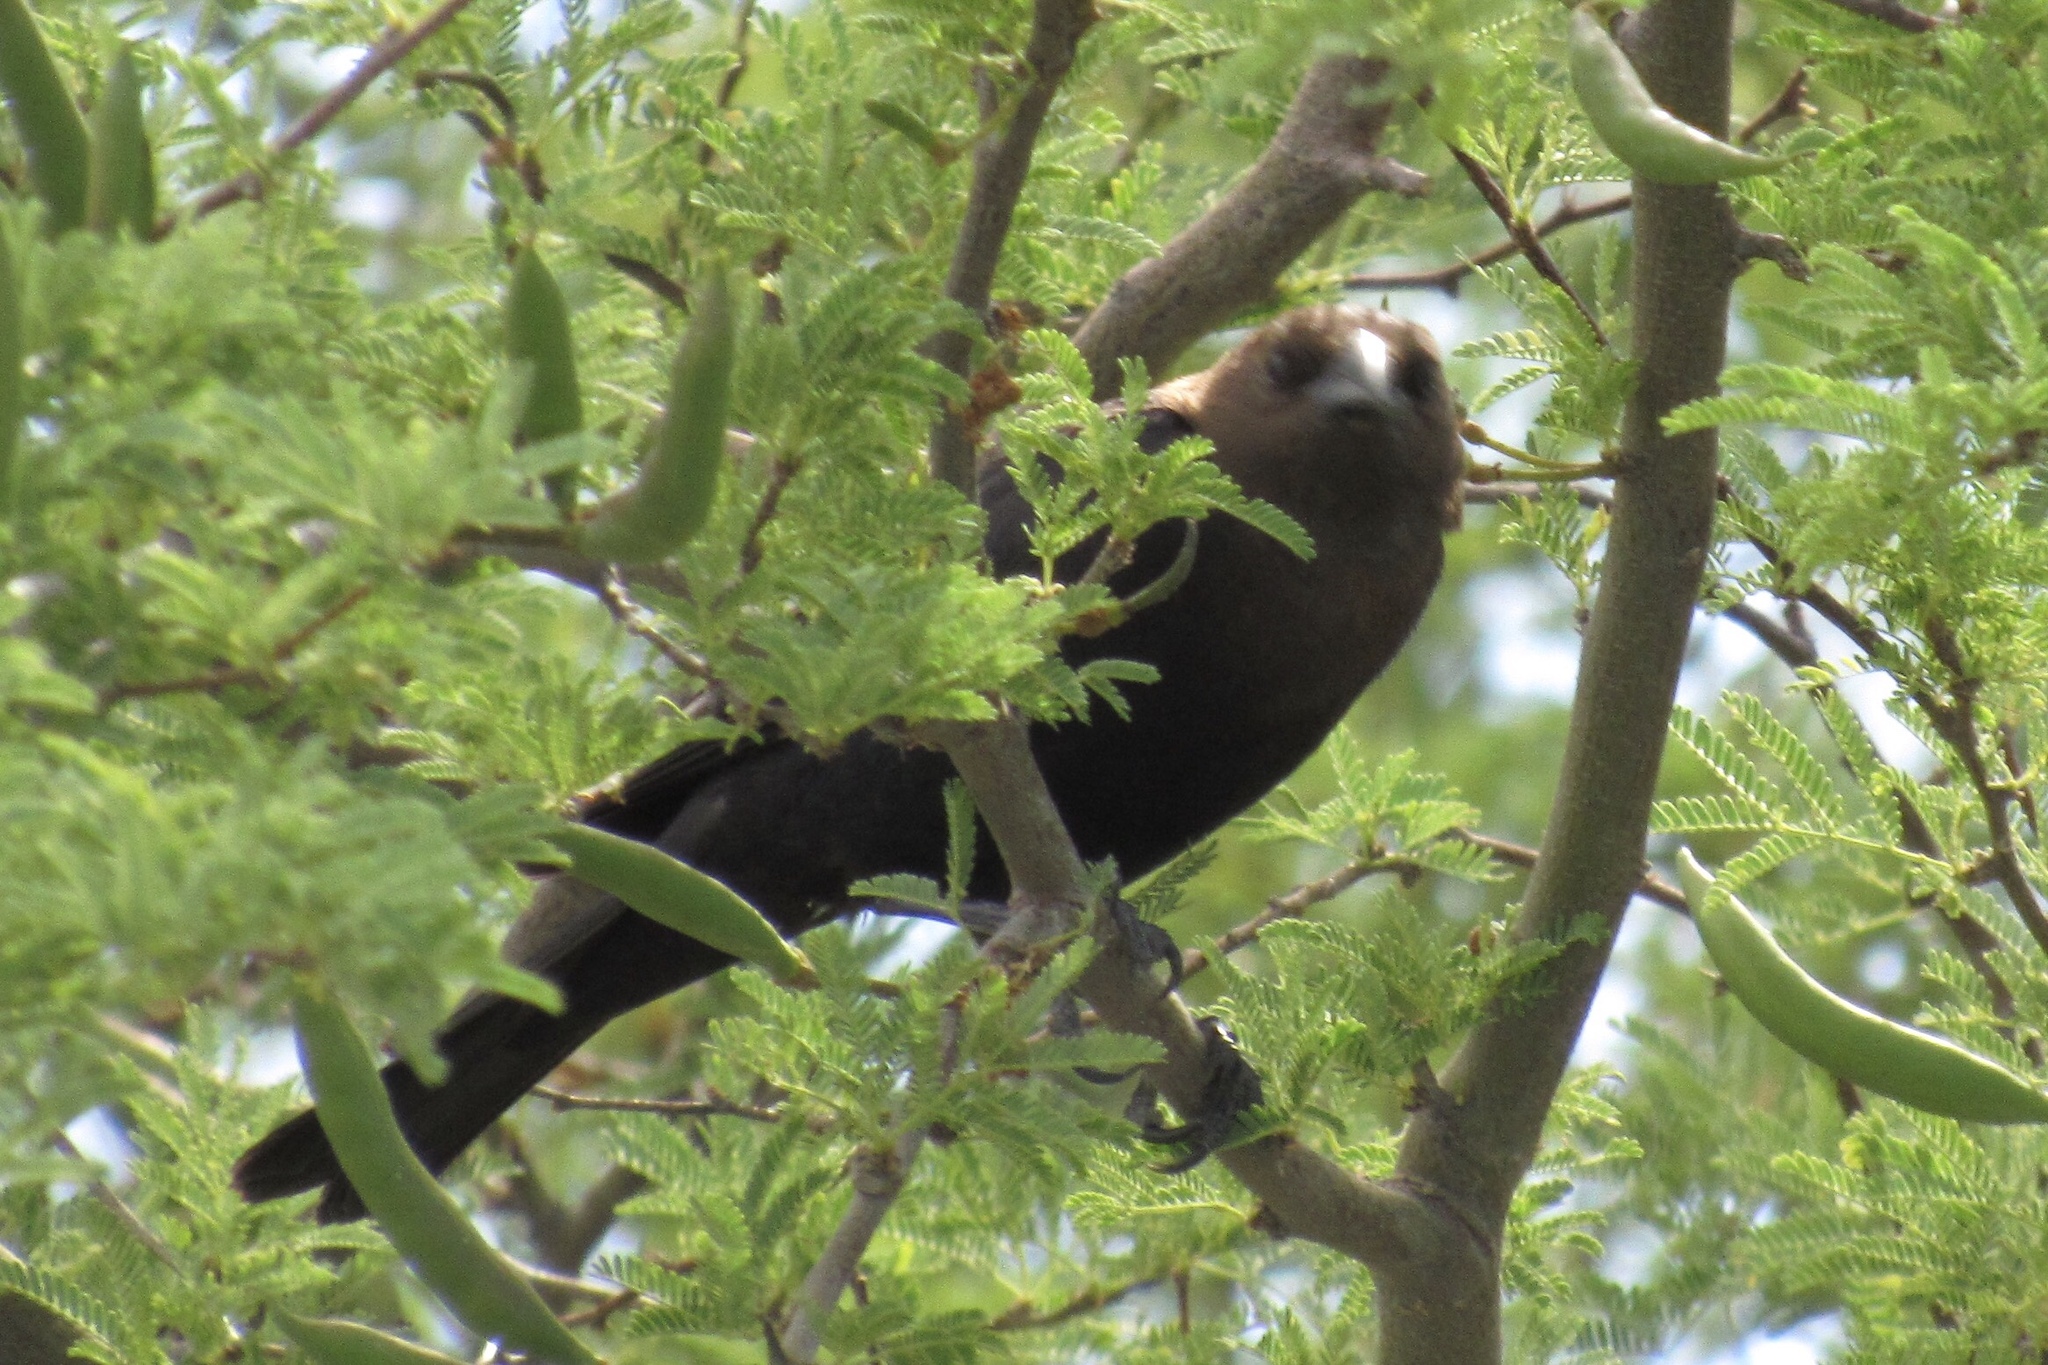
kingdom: Animalia
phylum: Chordata
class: Aves
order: Passeriformes
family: Icteridae
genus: Molothrus
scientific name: Molothrus ater
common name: Brown-headed cowbird
